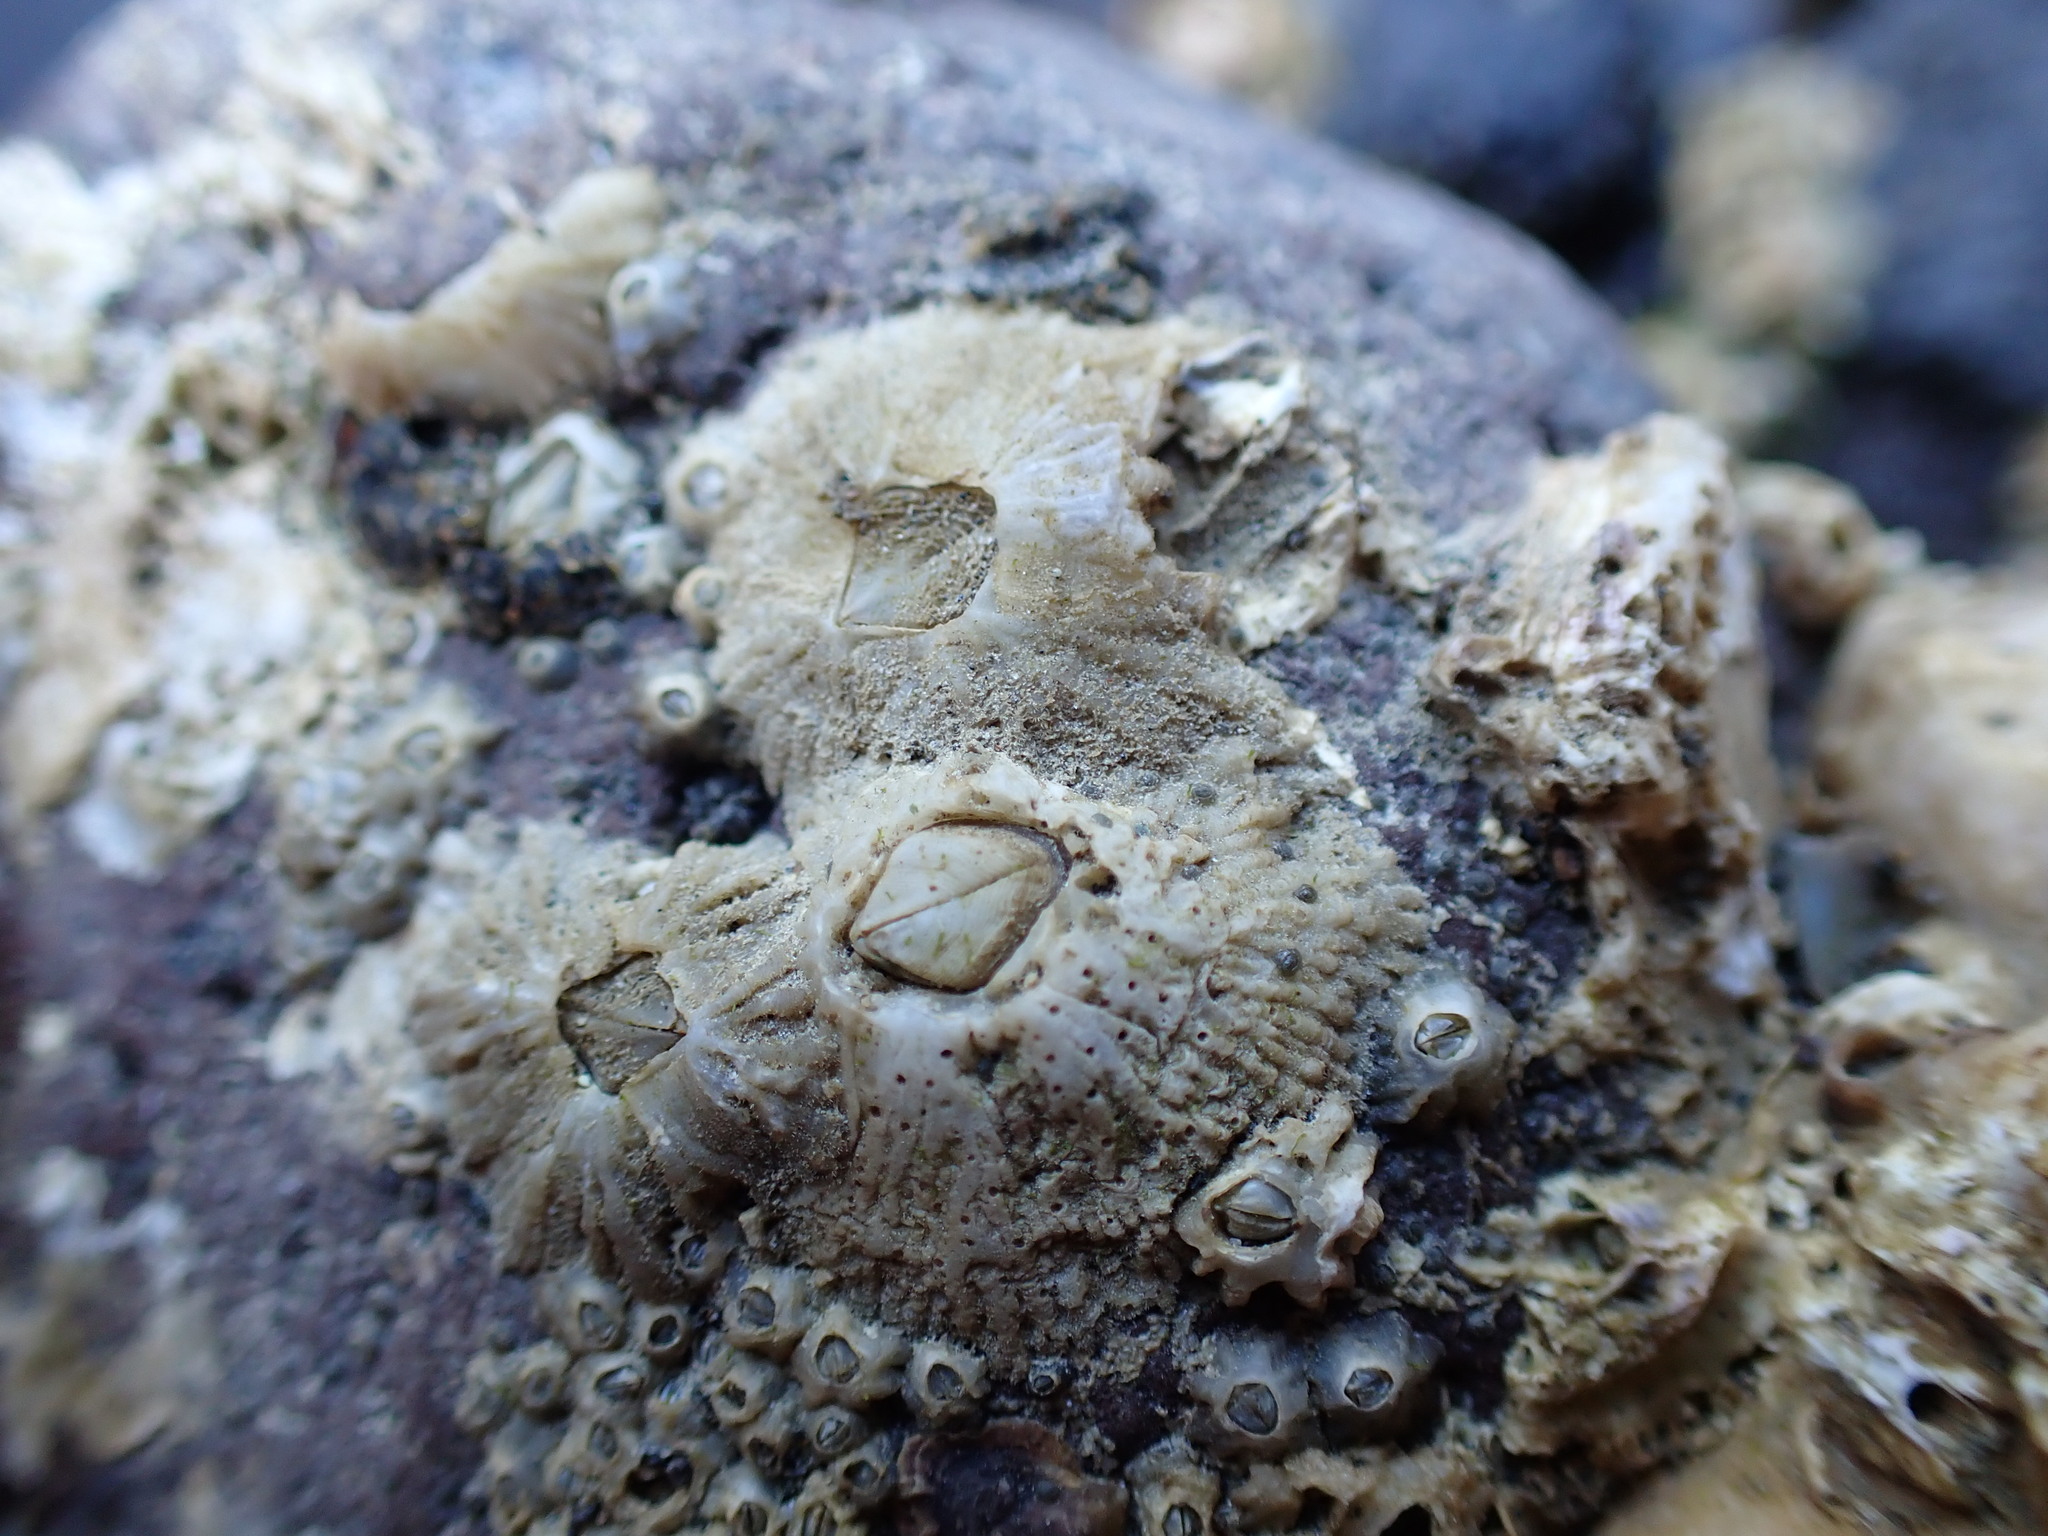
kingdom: Animalia
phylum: Arthropoda
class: Maxillopoda
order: Sessilia
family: Tetraclitidae
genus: Tetraclitella
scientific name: Tetraclitella depressa
